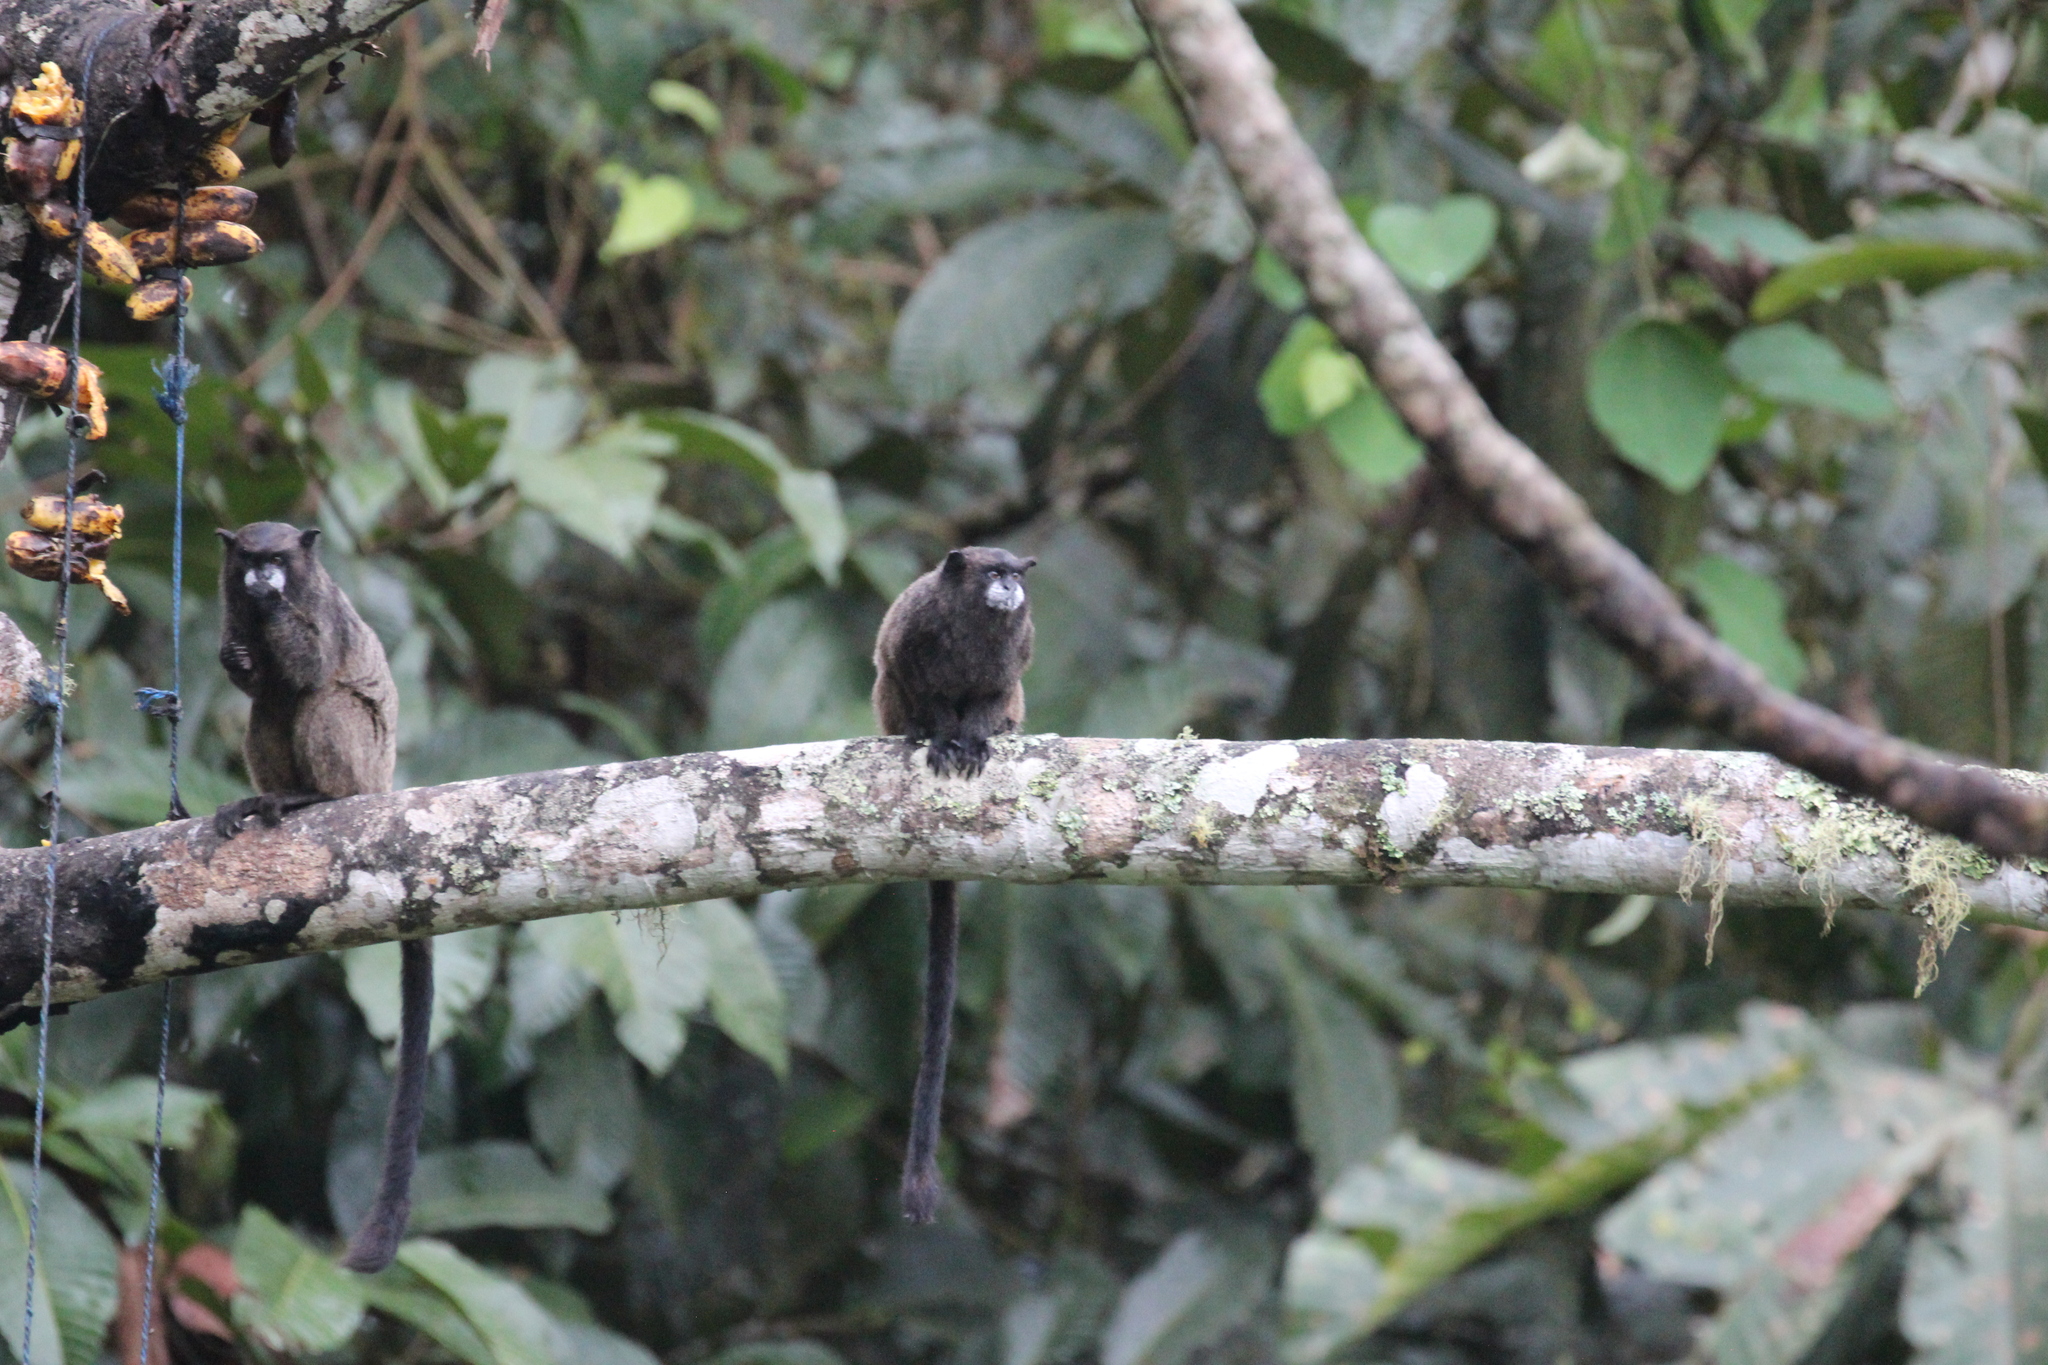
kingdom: Animalia
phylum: Chordata
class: Mammalia
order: Primates
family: Callitrichidae
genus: Leontocebus
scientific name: Leontocebus nigricollis
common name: Black-mantled tamarin
